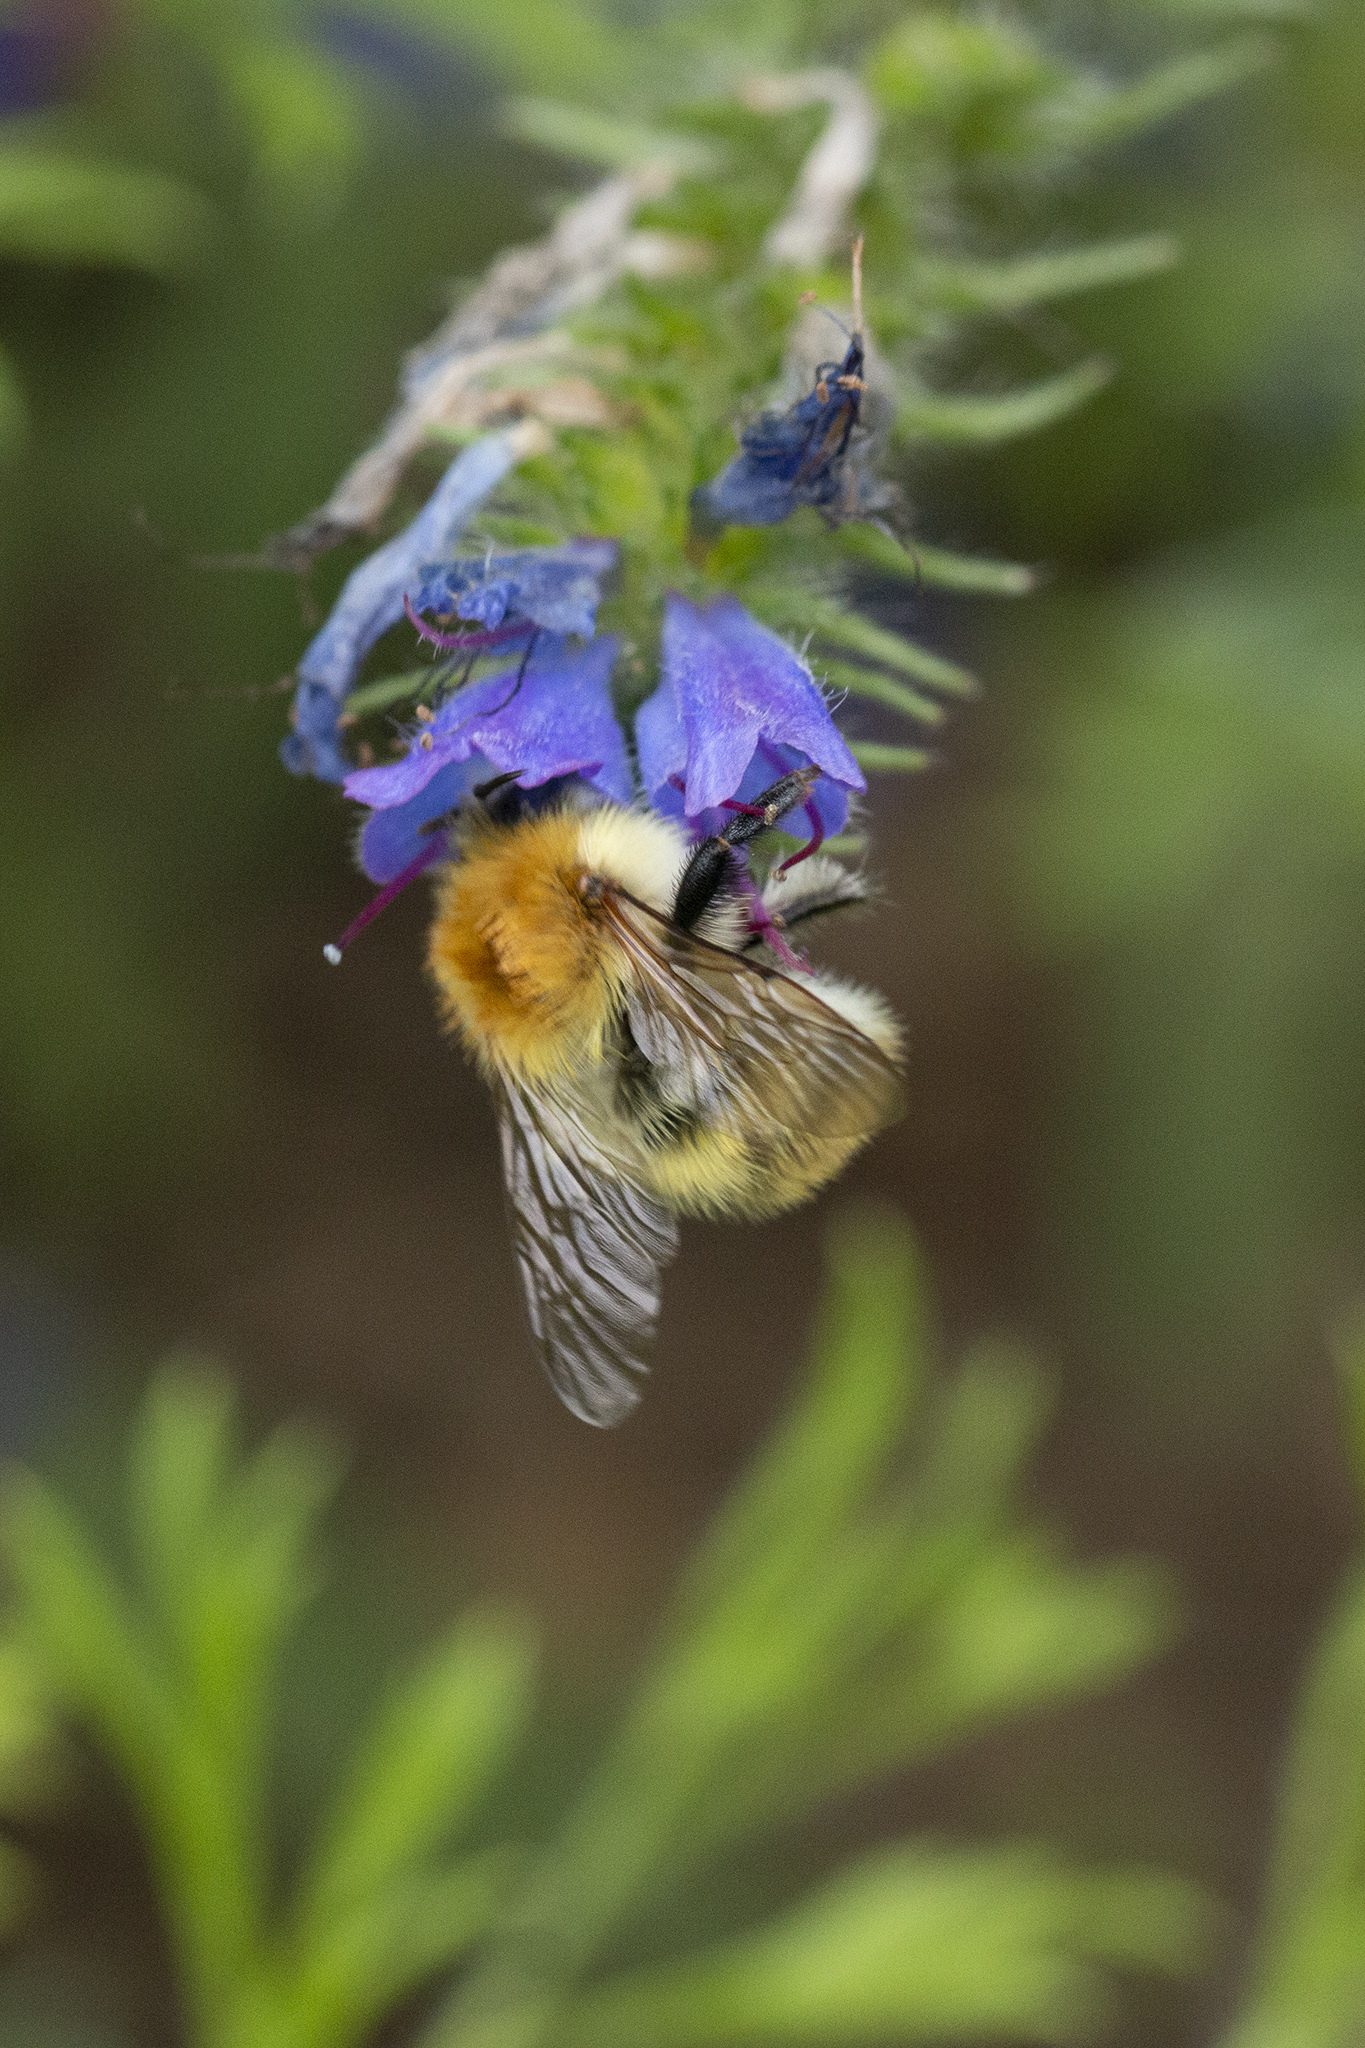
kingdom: Animalia
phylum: Arthropoda
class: Insecta
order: Hymenoptera
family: Apidae
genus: Bombus
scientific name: Bombus pascuorum
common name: Common carder bee
